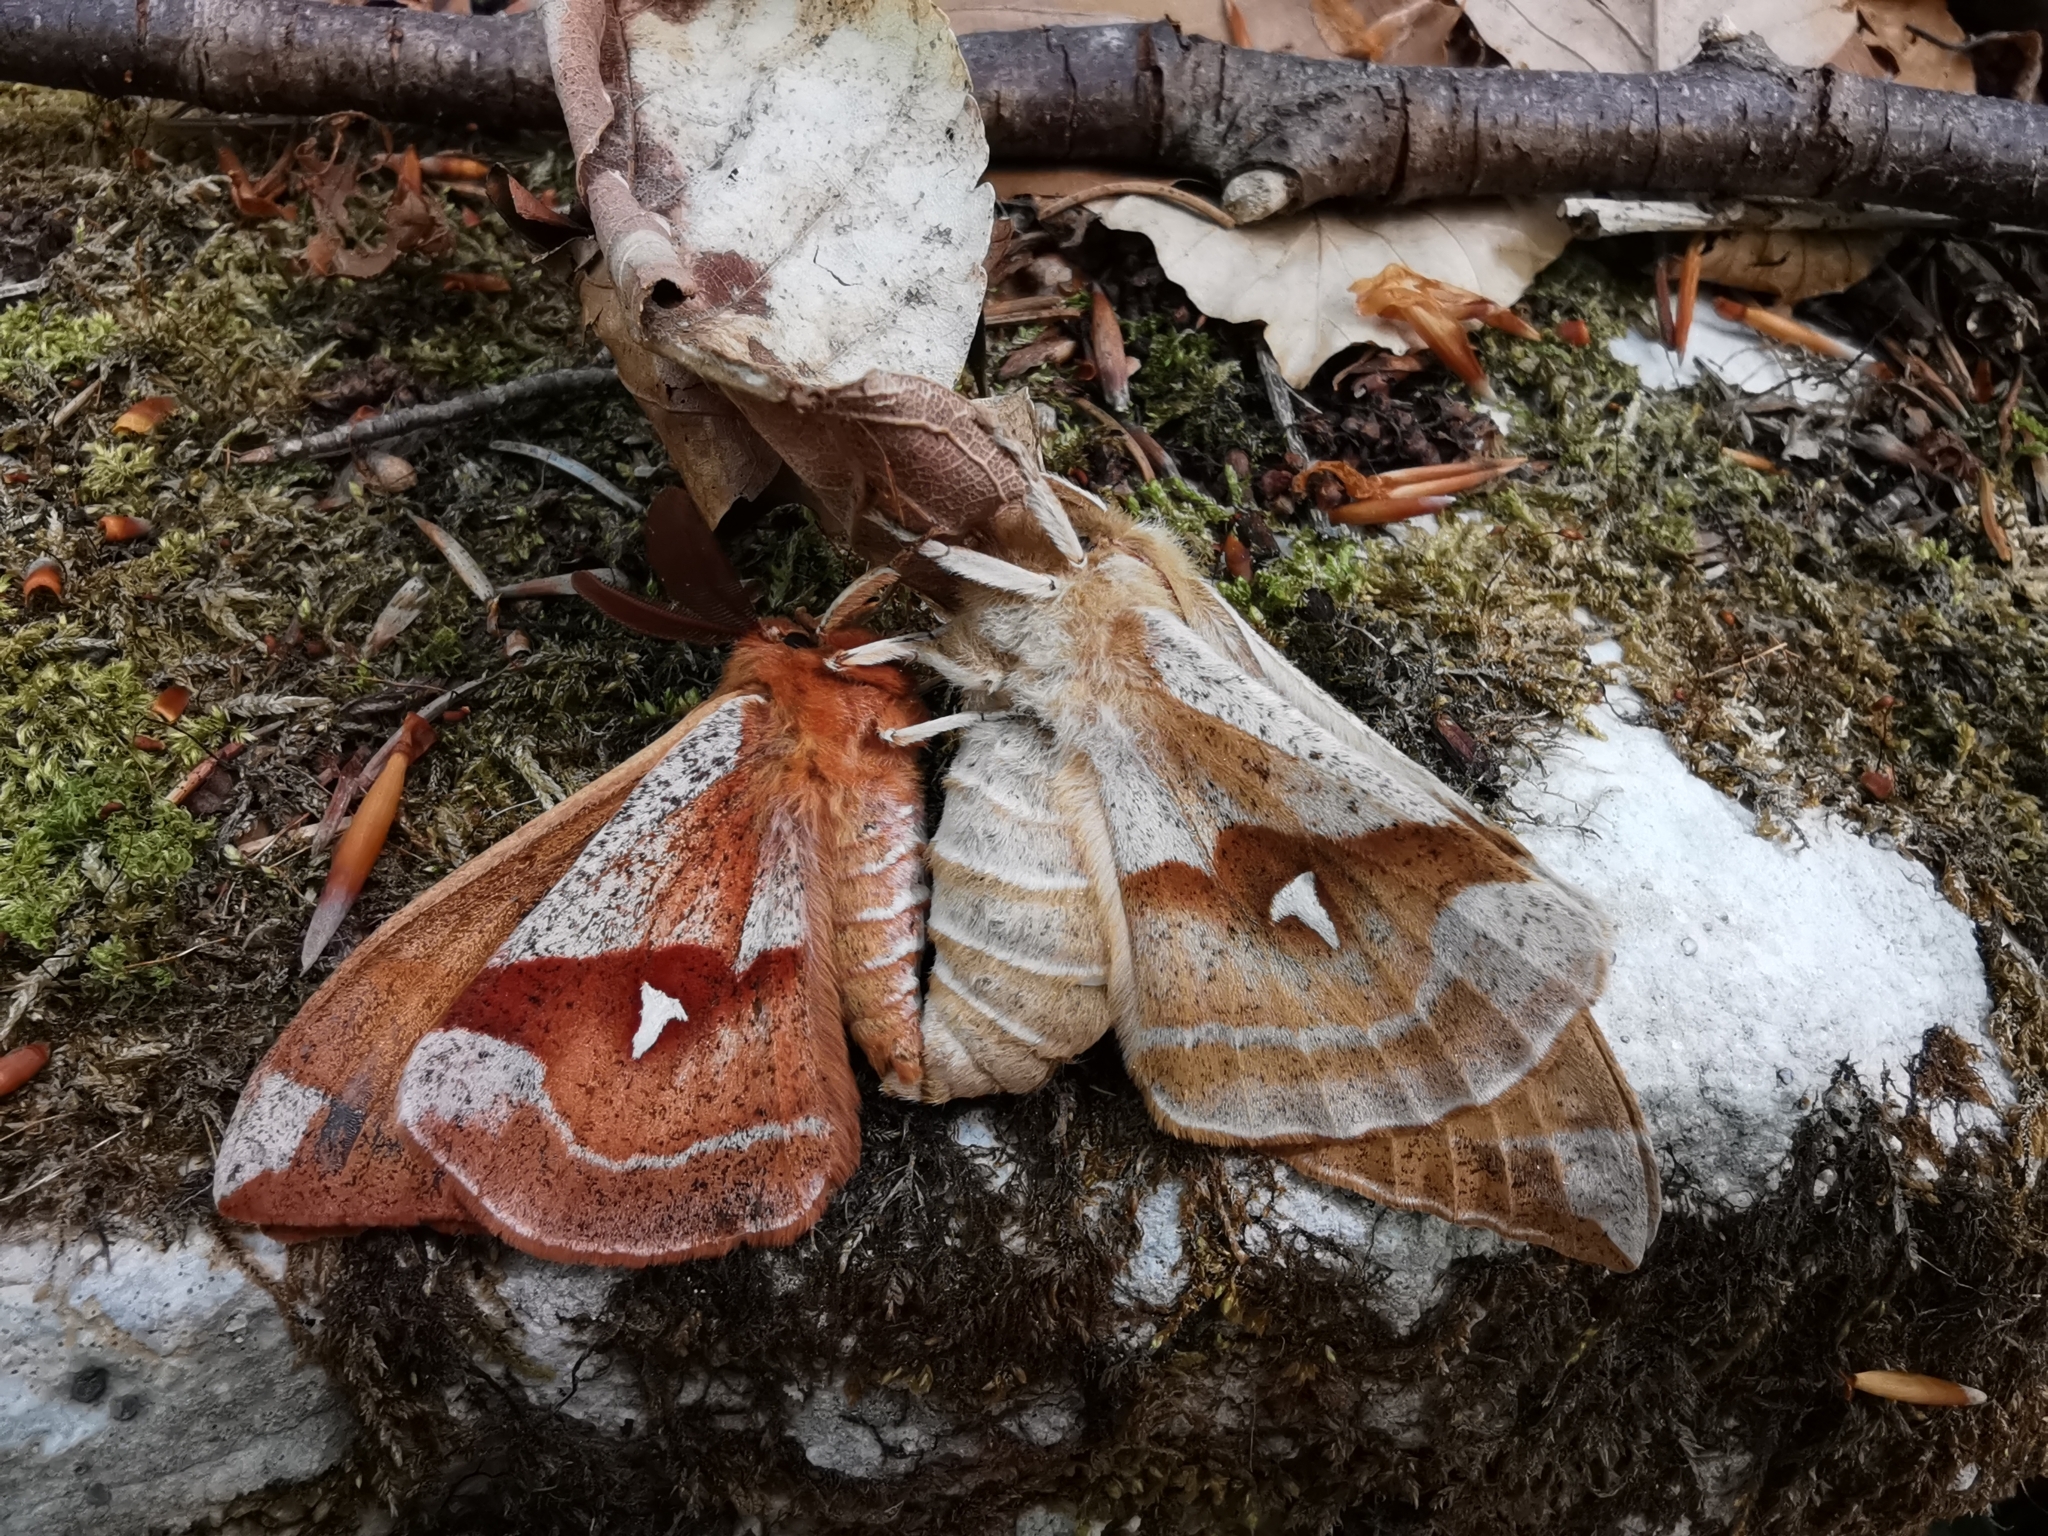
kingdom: Animalia
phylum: Arthropoda
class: Insecta
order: Lepidoptera
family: Saturniidae
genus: Aglia
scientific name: Aglia tau
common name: Tau emperor
